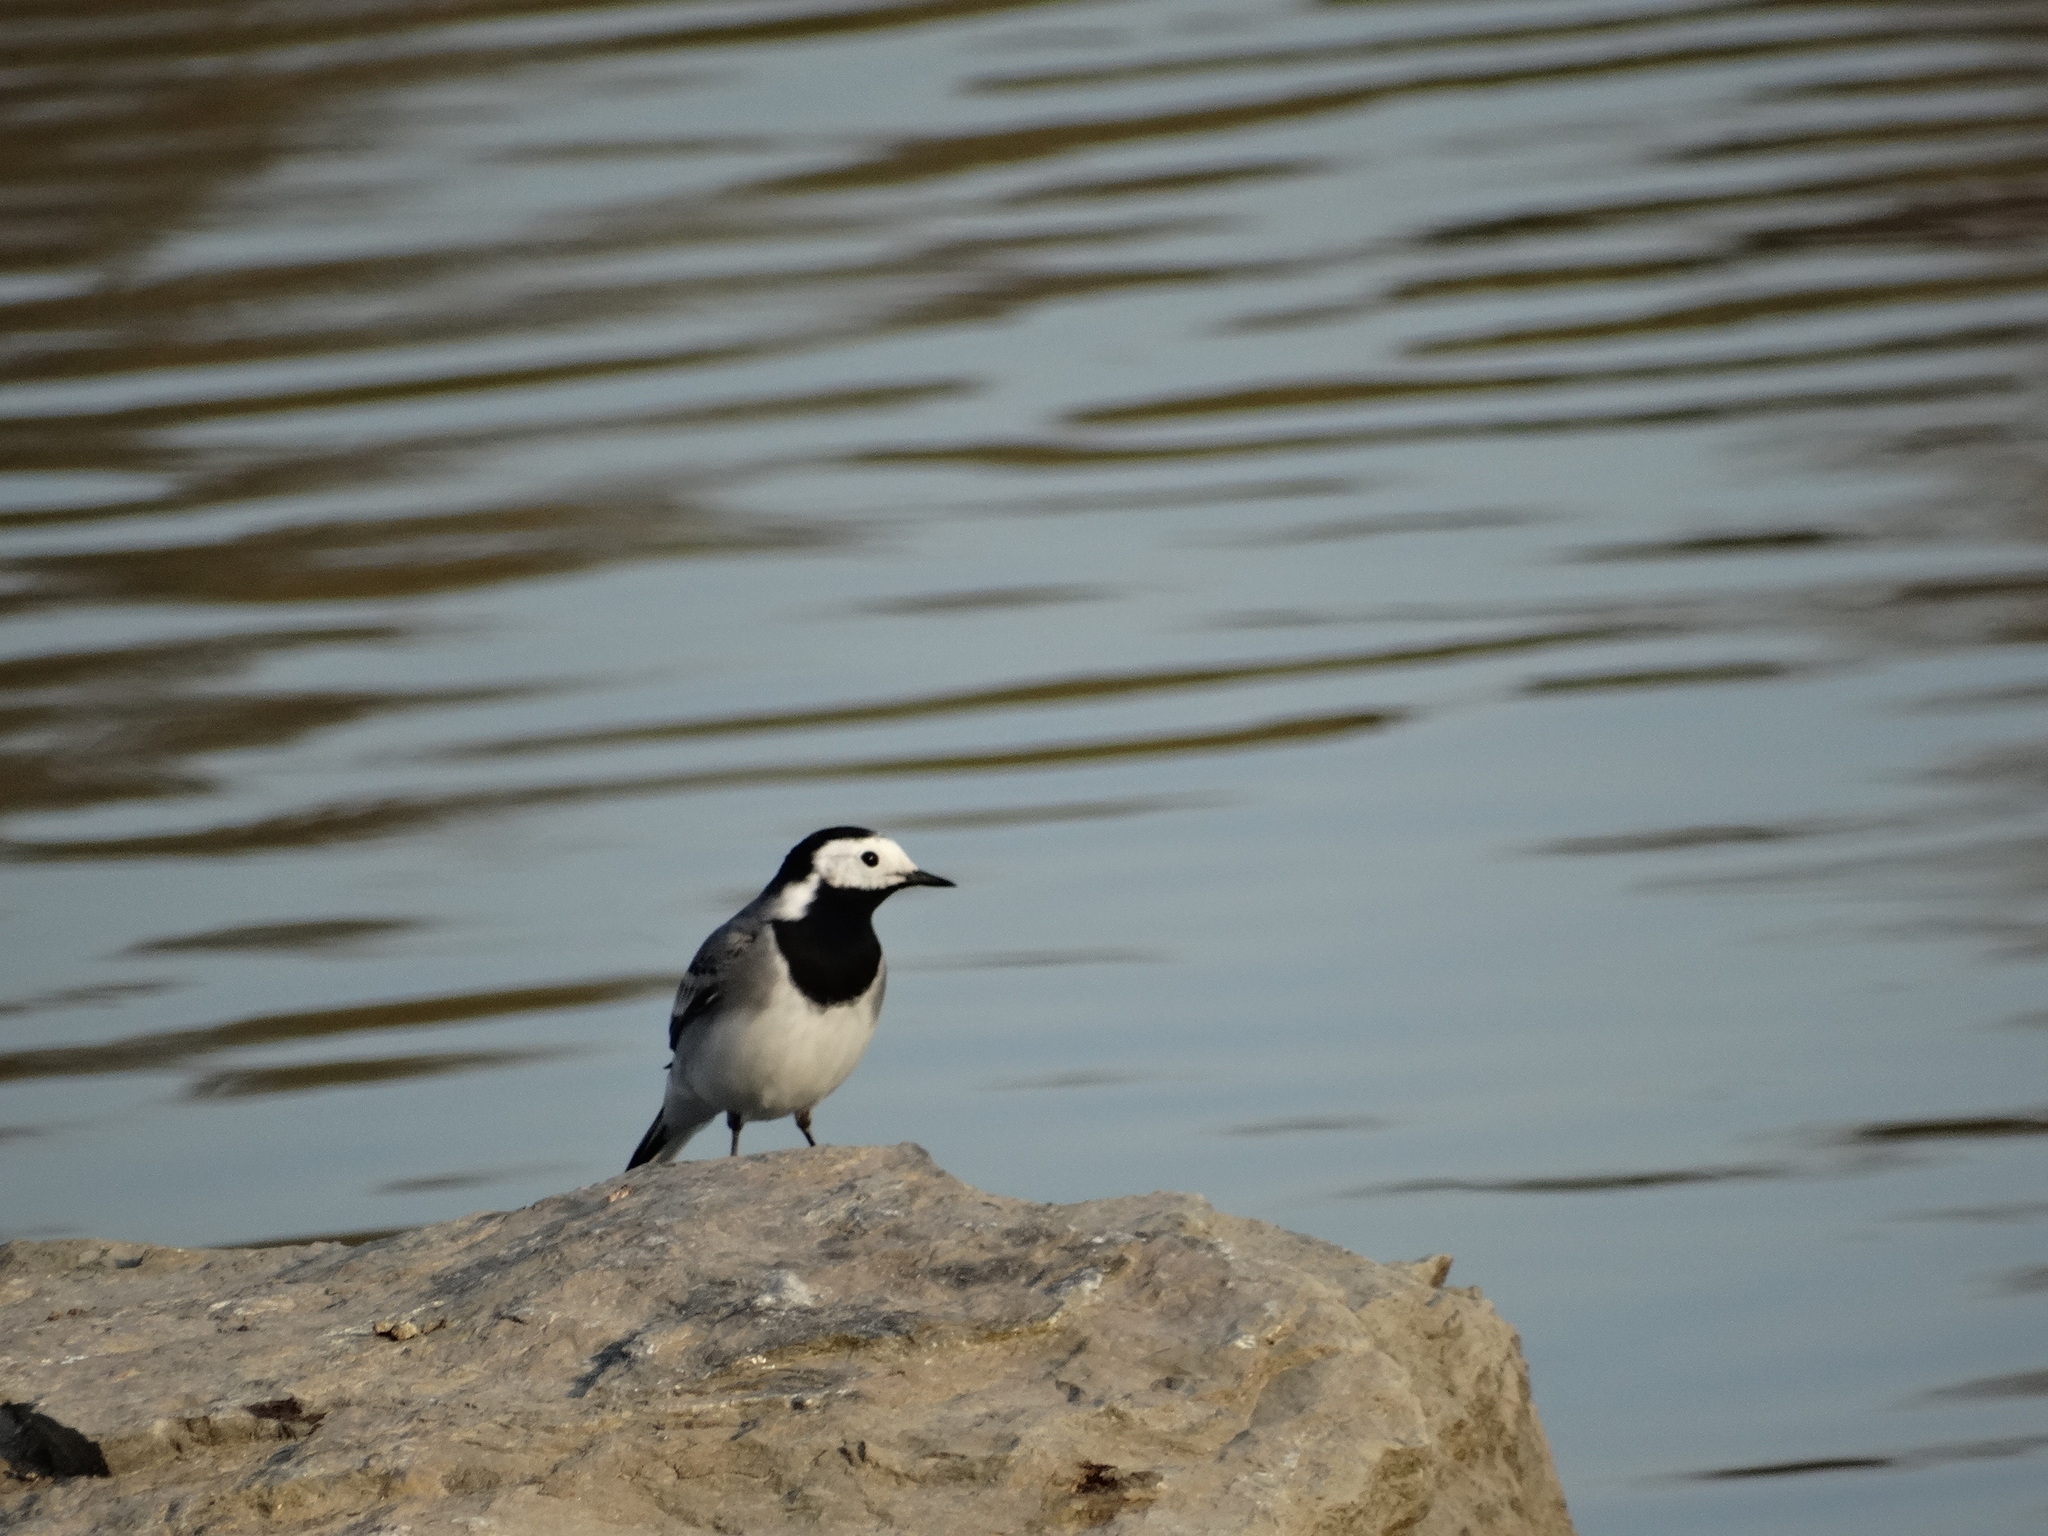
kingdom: Animalia
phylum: Chordata
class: Aves
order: Passeriformes
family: Motacillidae
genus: Motacilla
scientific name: Motacilla alba
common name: White wagtail
